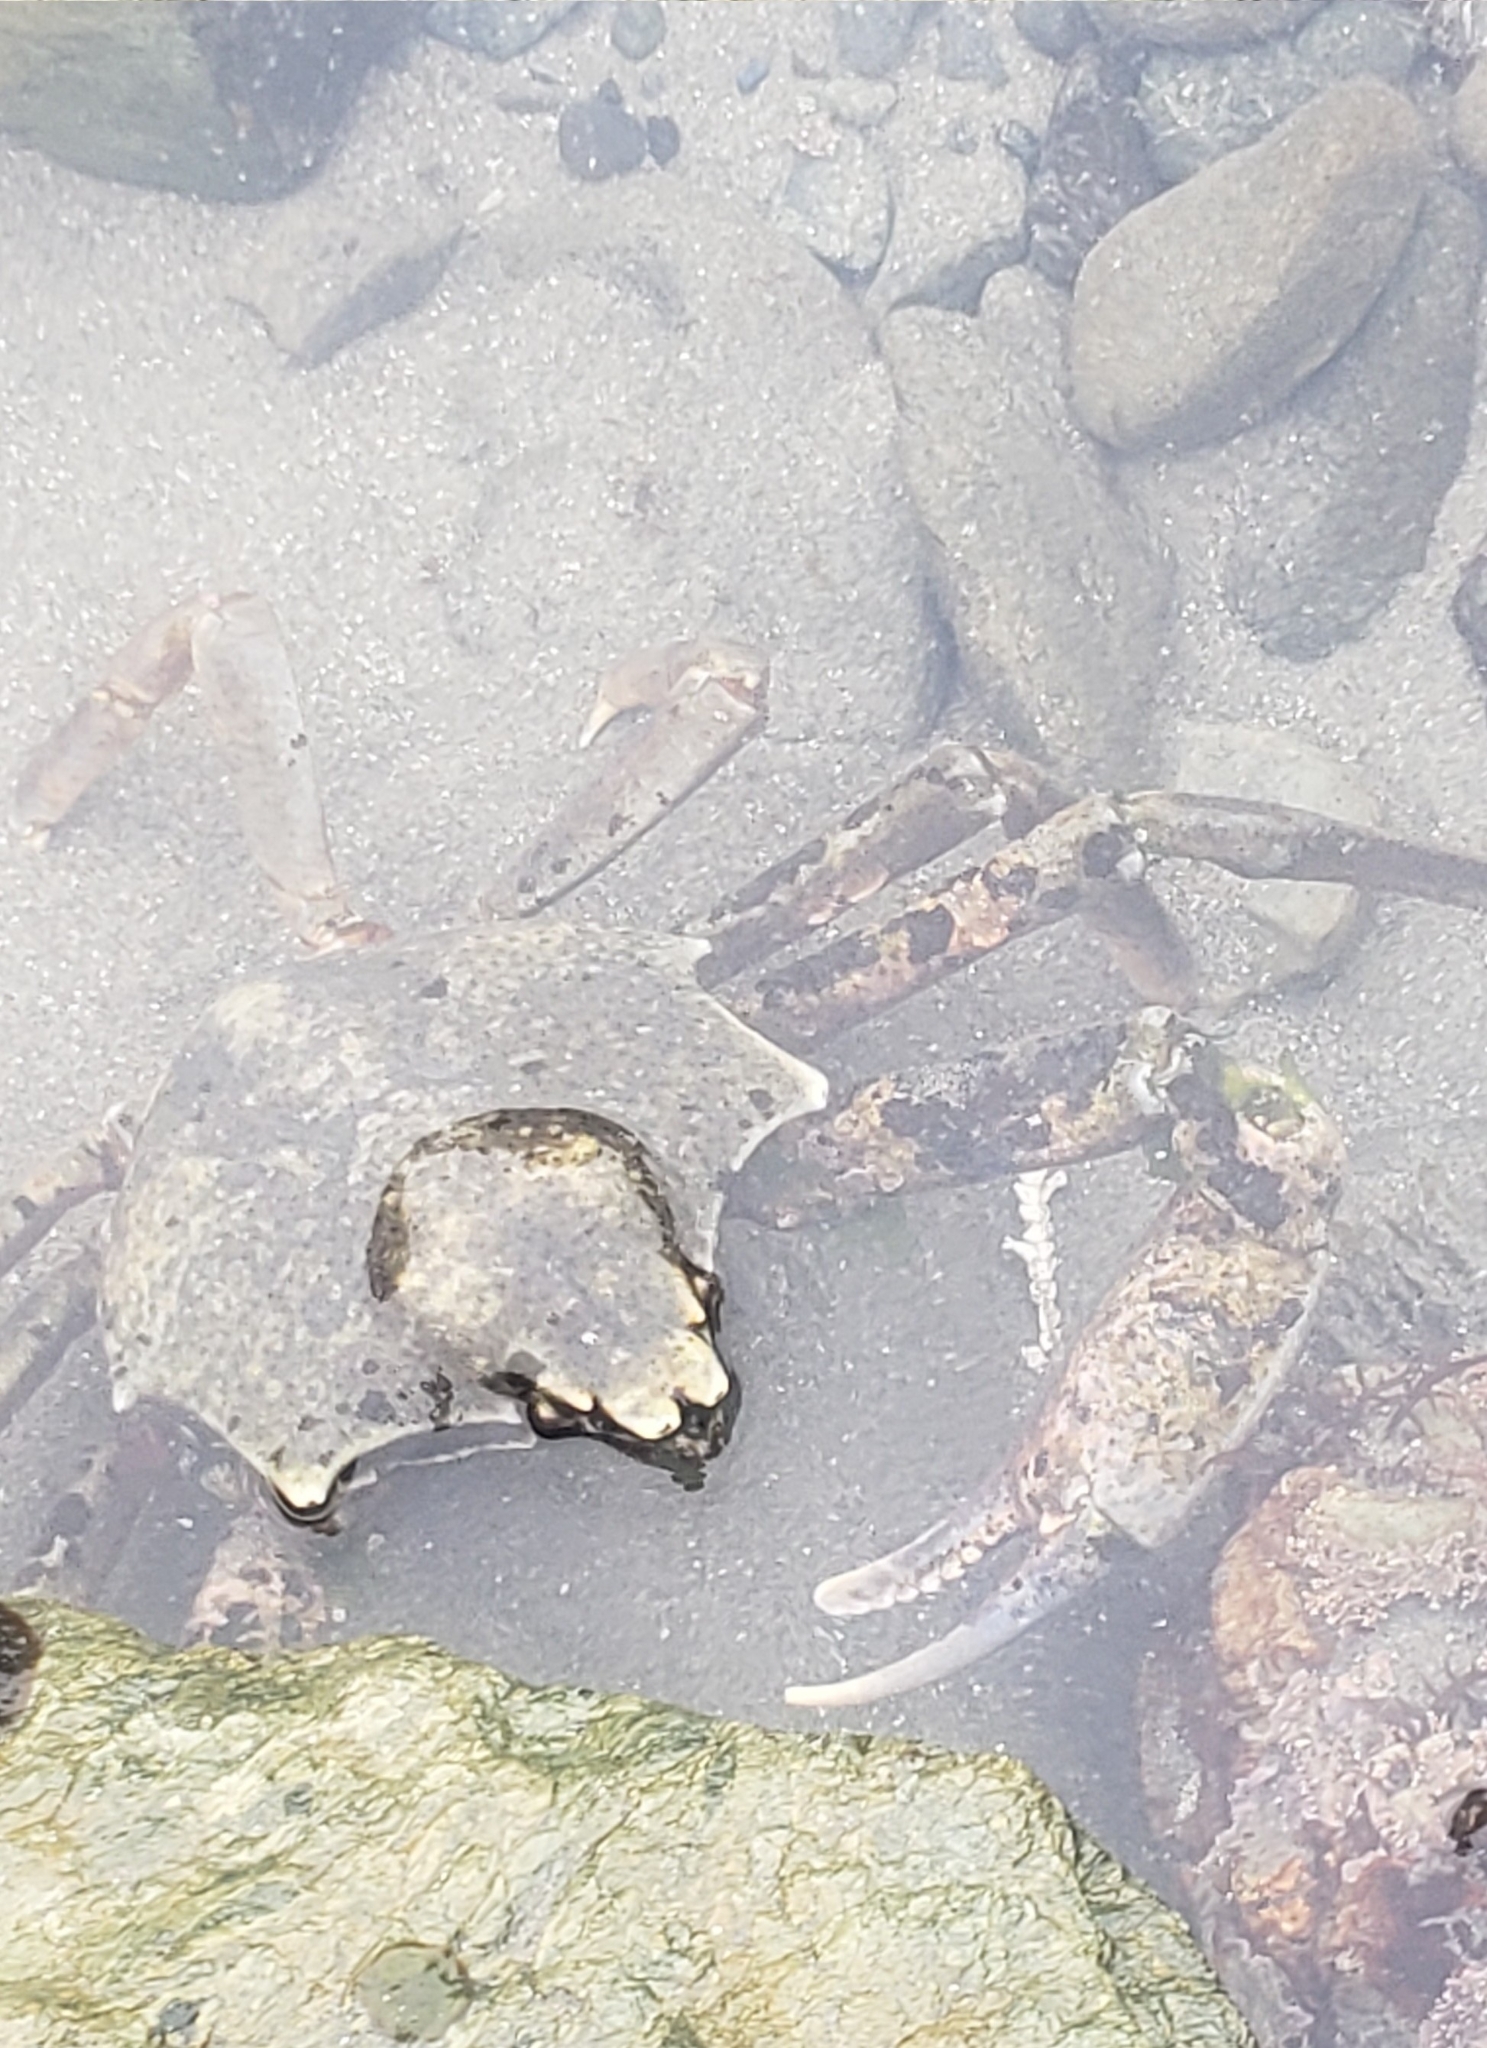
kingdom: Animalia
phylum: Arthropoda
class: Malacostraca
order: Decapoda
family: Epialtidae
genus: Pugettia
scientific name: Pugettia producta
